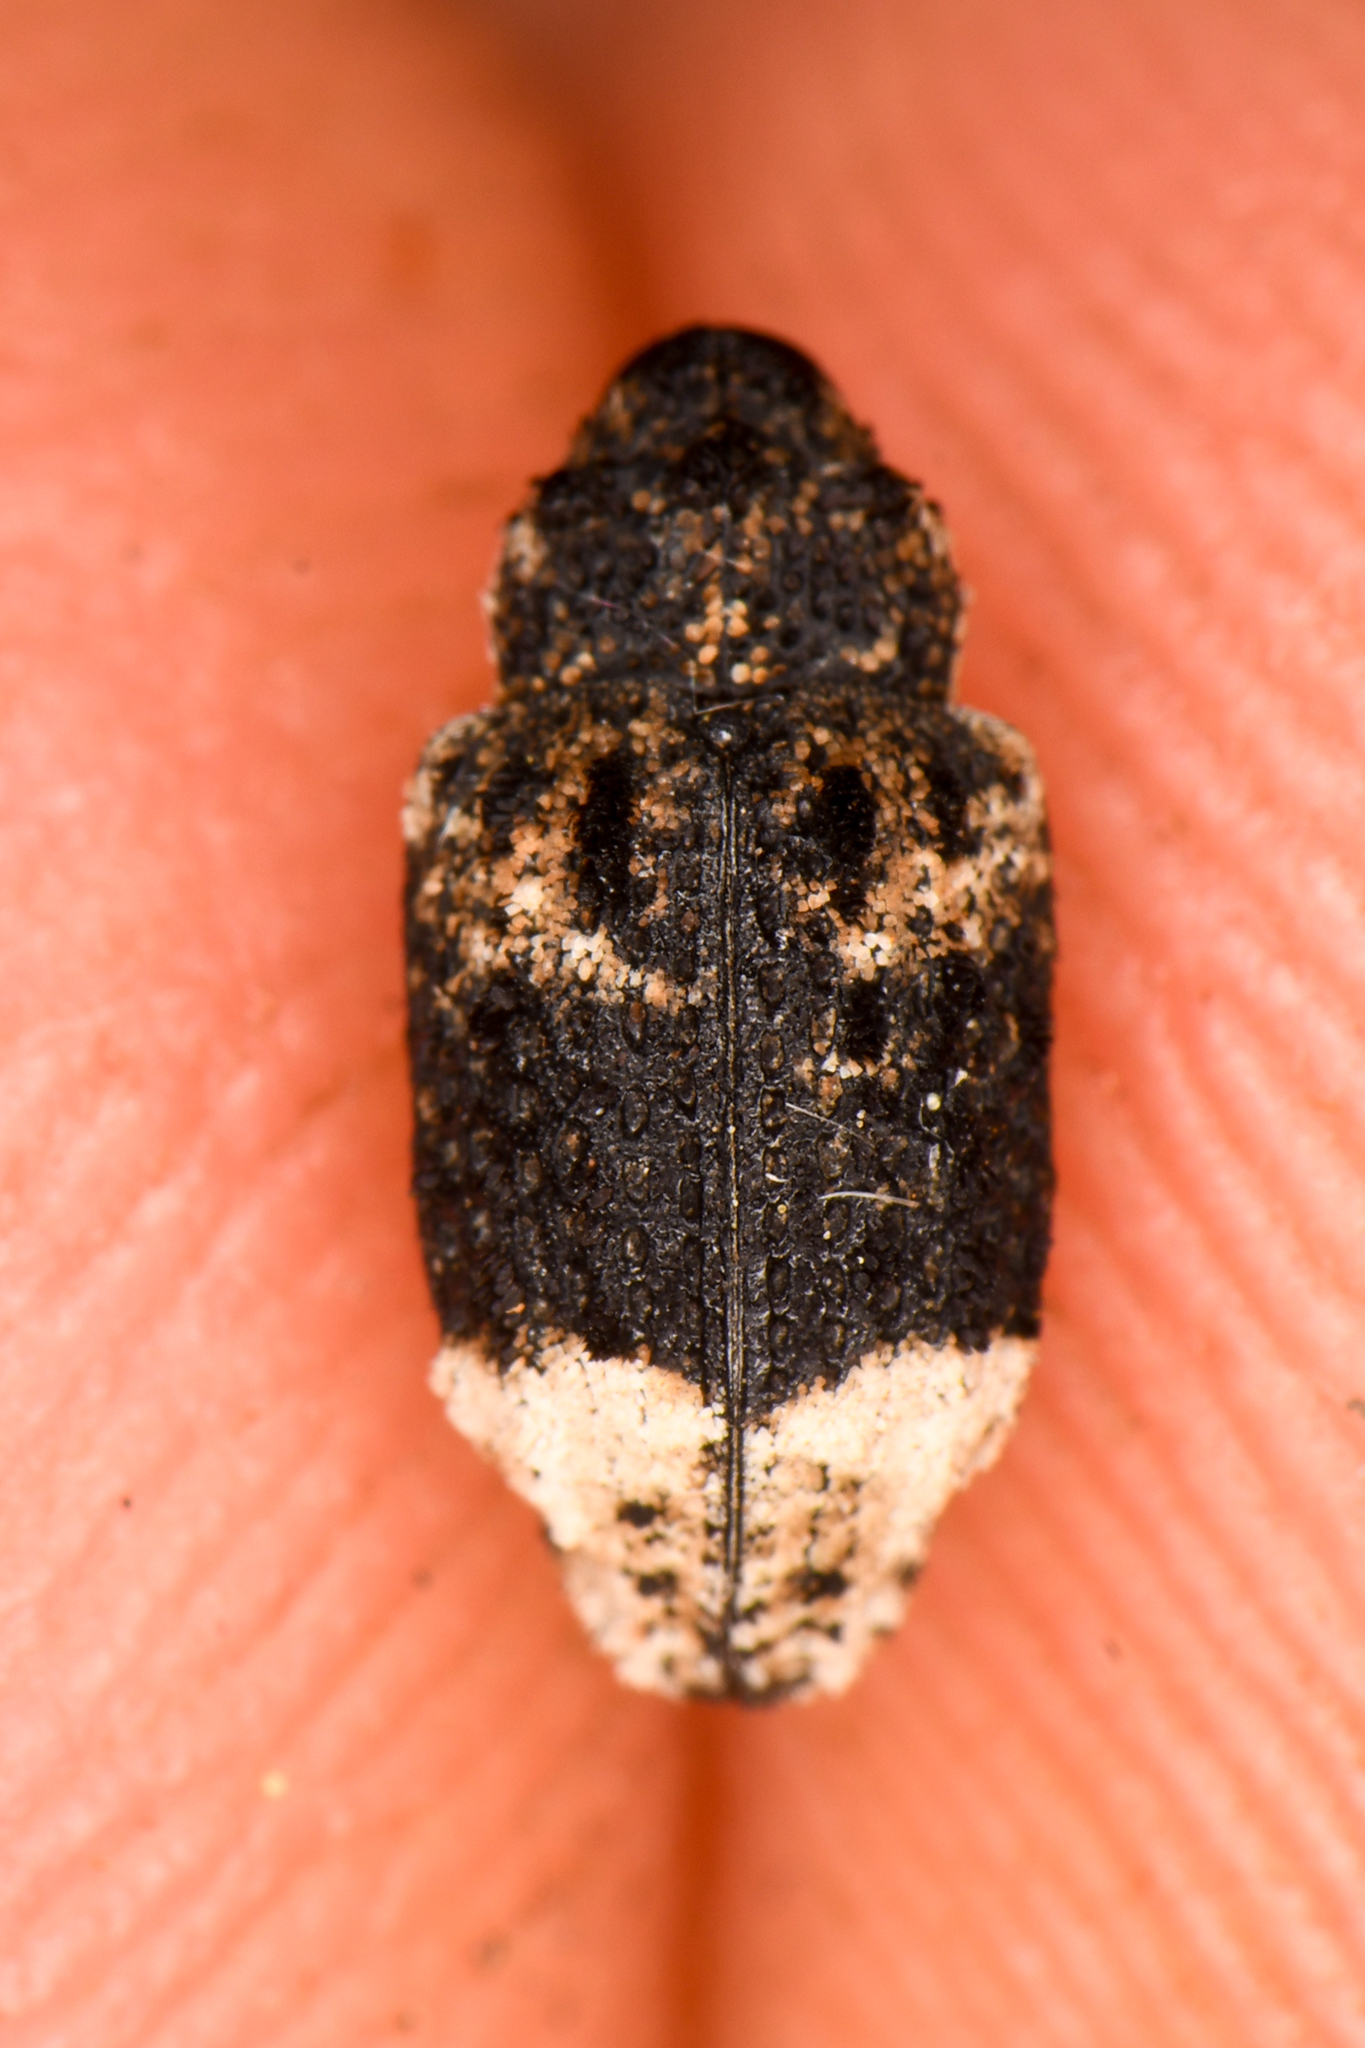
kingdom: Animalia
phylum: Arthropoda
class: Insecta
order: Coleoptera
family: Curculionidae
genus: Cryptorhynchus
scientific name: Cryptorhynchus lapathi
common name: Weevil
